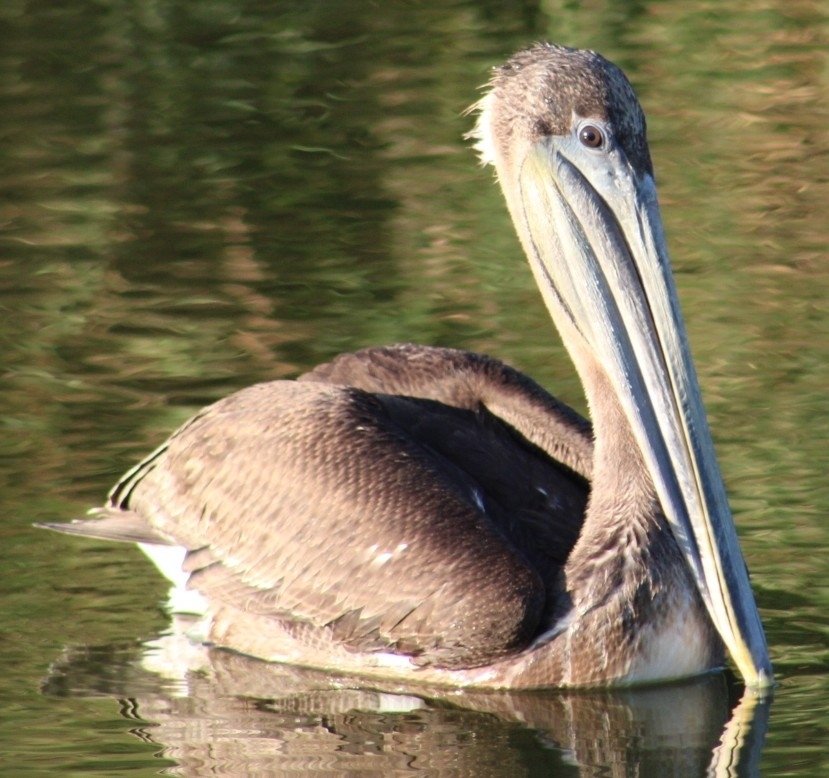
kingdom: Animalia
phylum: Chordata
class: Aves
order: Pelecaniformes
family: Pelecanidae
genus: Pelecanus
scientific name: Pelecanus occidentalis
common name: Brown pelican
